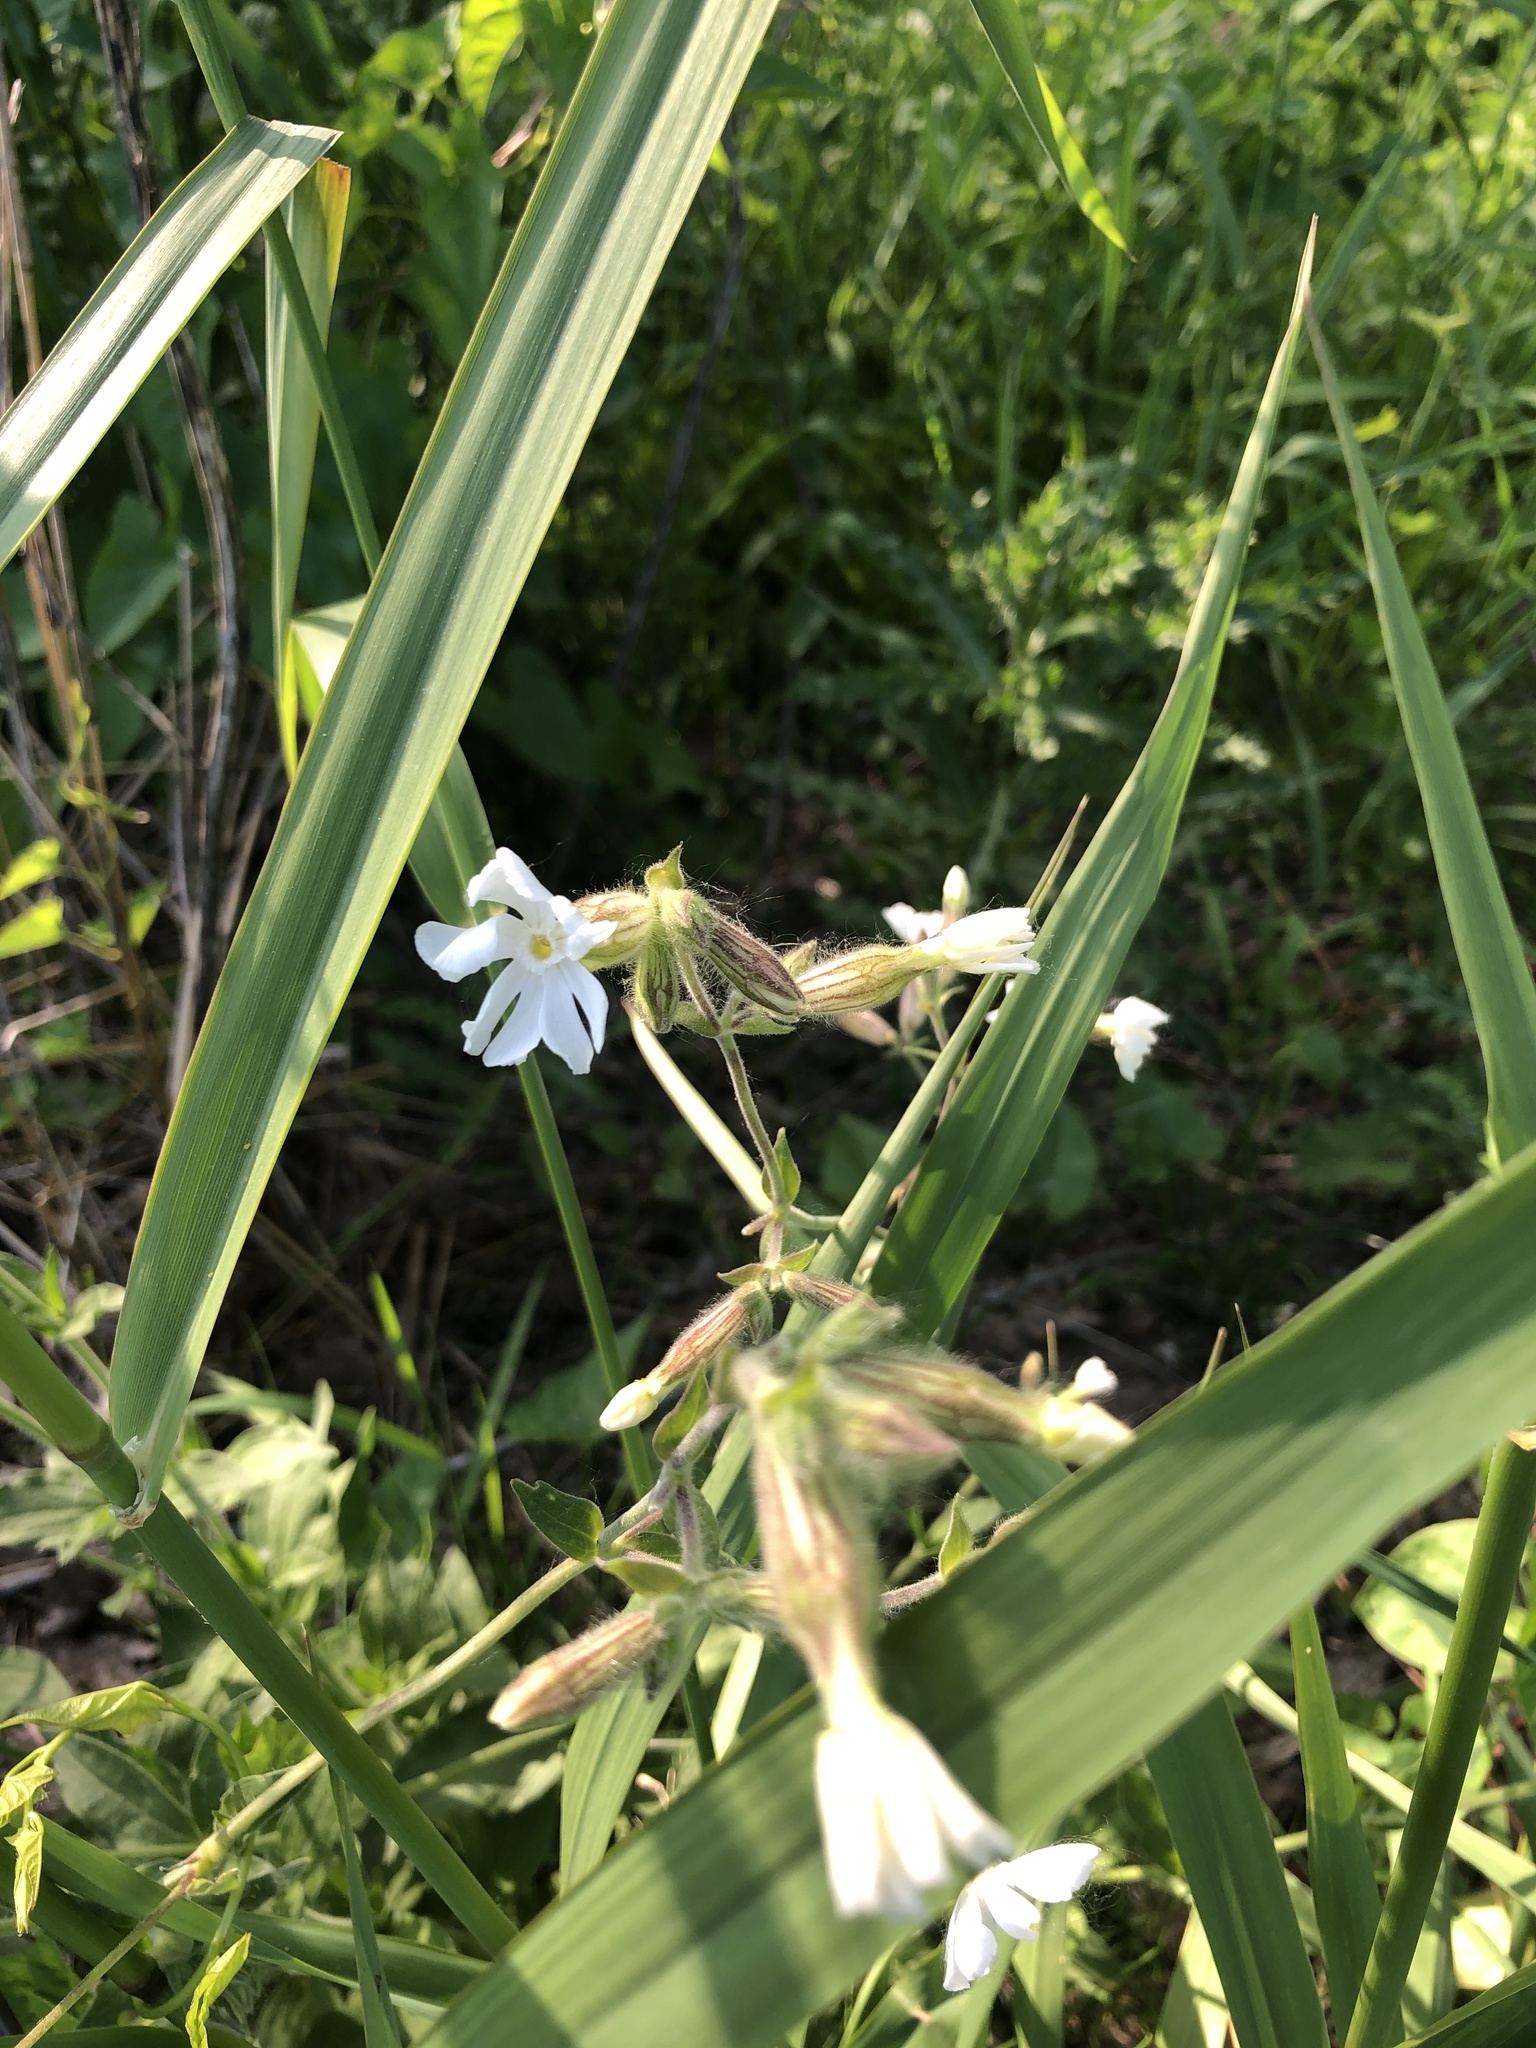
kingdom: Plantae
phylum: Tracheophyta
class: Magnoliopsida
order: Caryophyllales
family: Caryophyllaceae
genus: Silene
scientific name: Silene latifolia
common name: White campion
